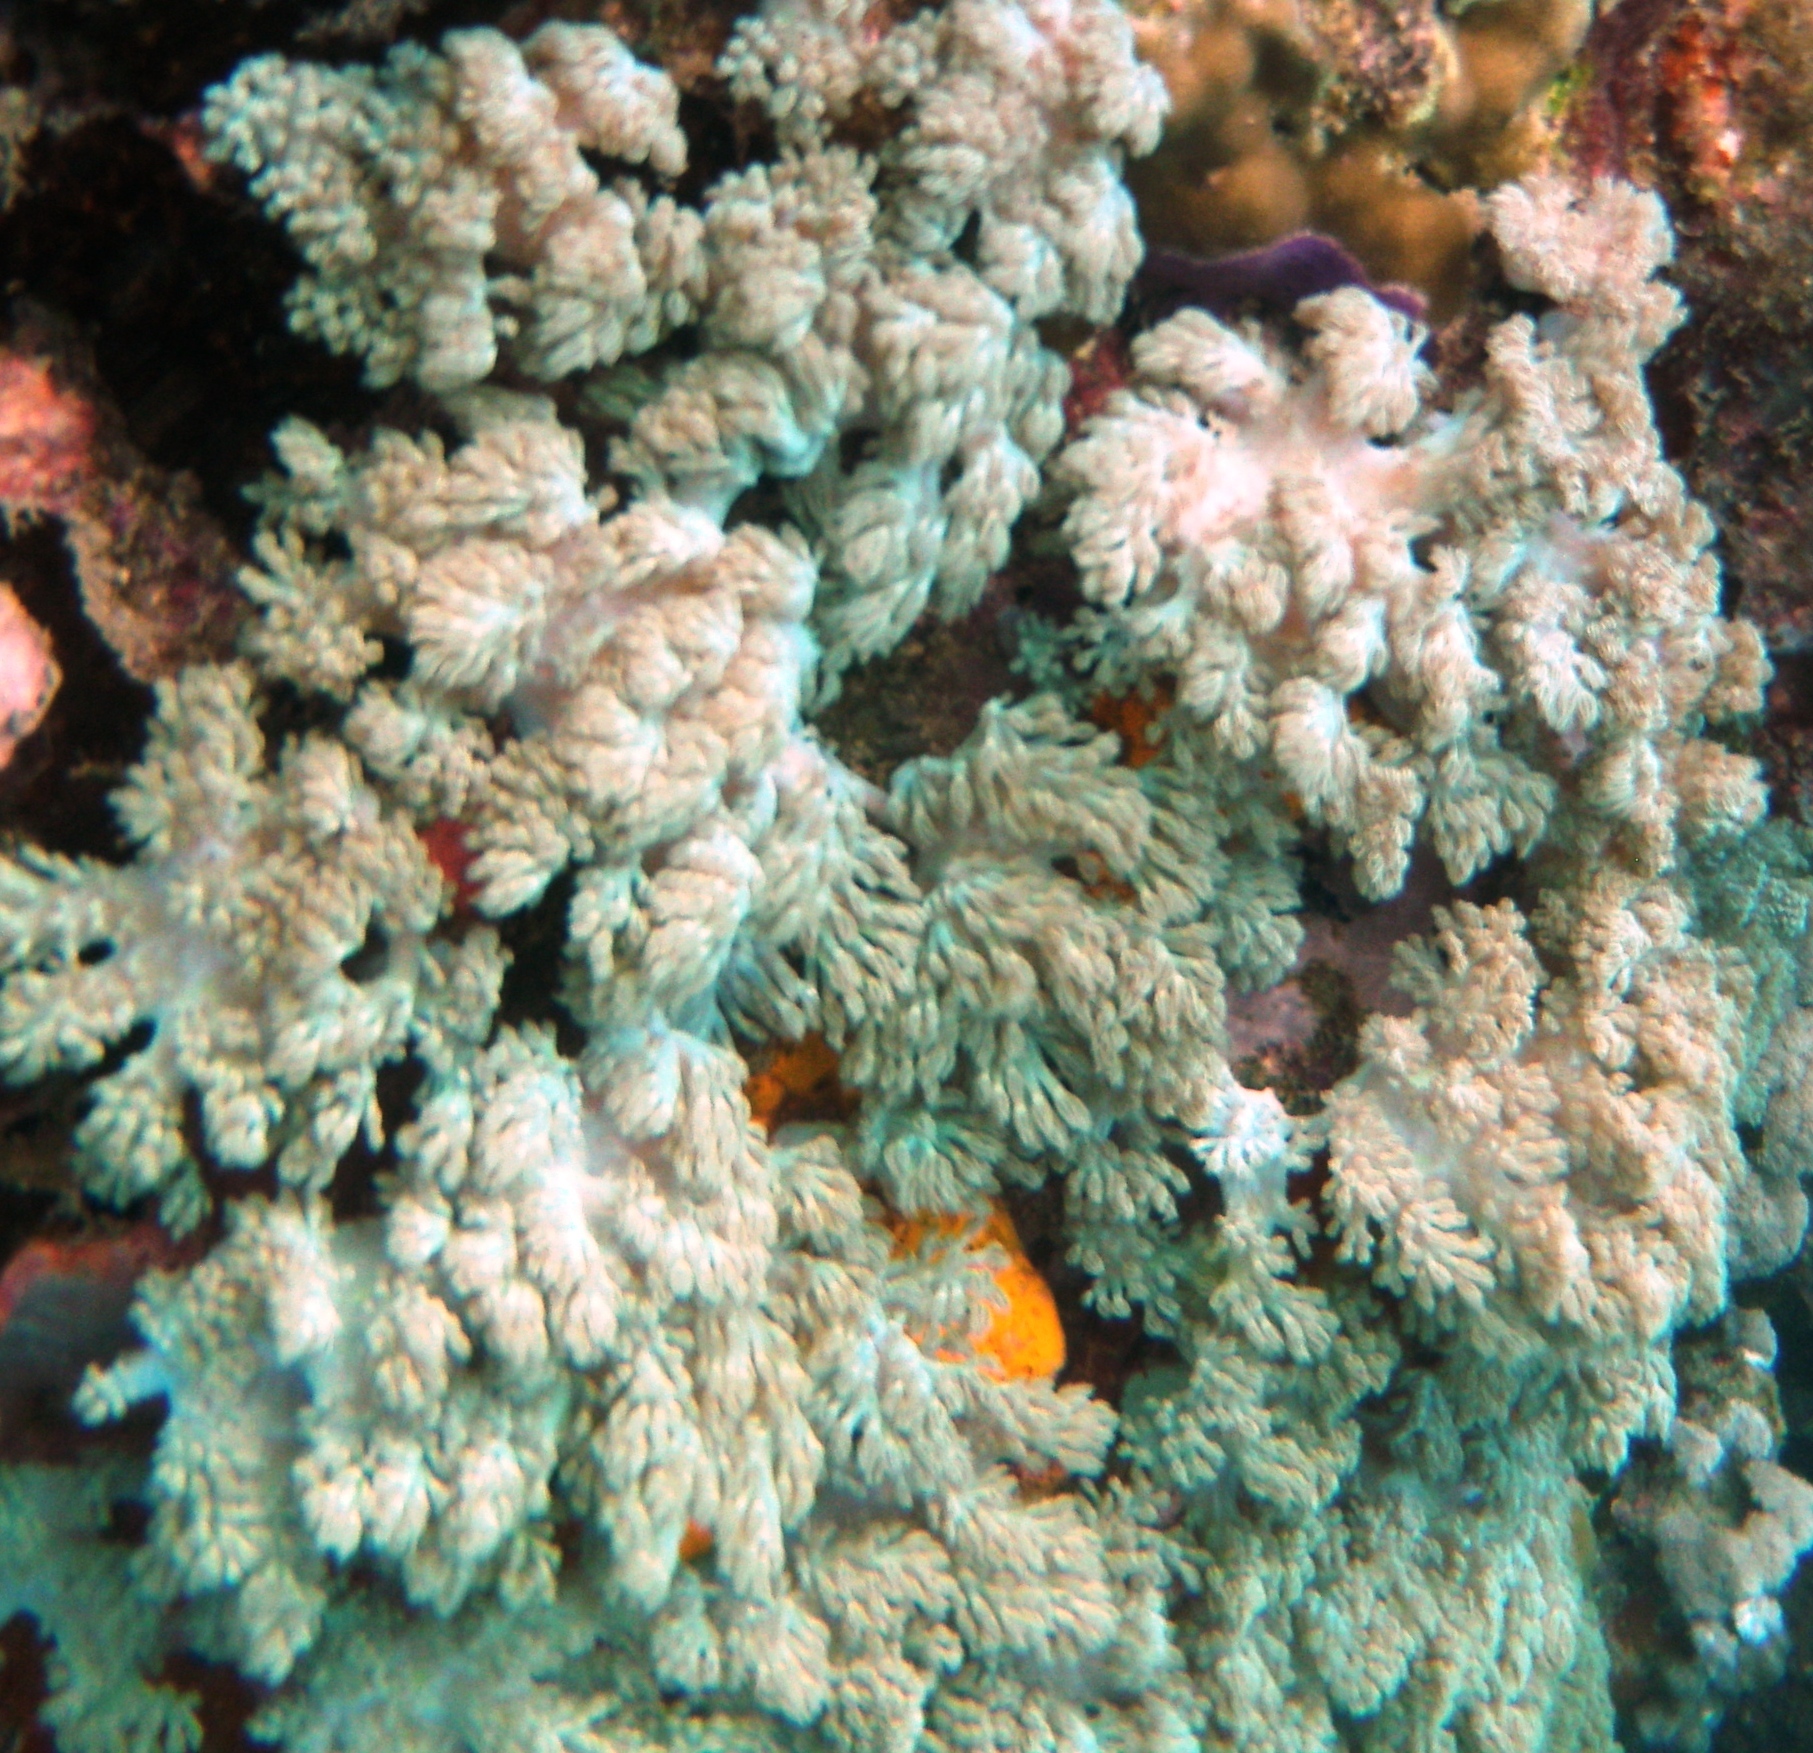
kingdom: Animalia
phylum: Cnidaria
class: Anthozoa
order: Malacalcyonacea
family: Xeniidae
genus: Conglomeratusclera
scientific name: Conglomeratusclera coerulea
